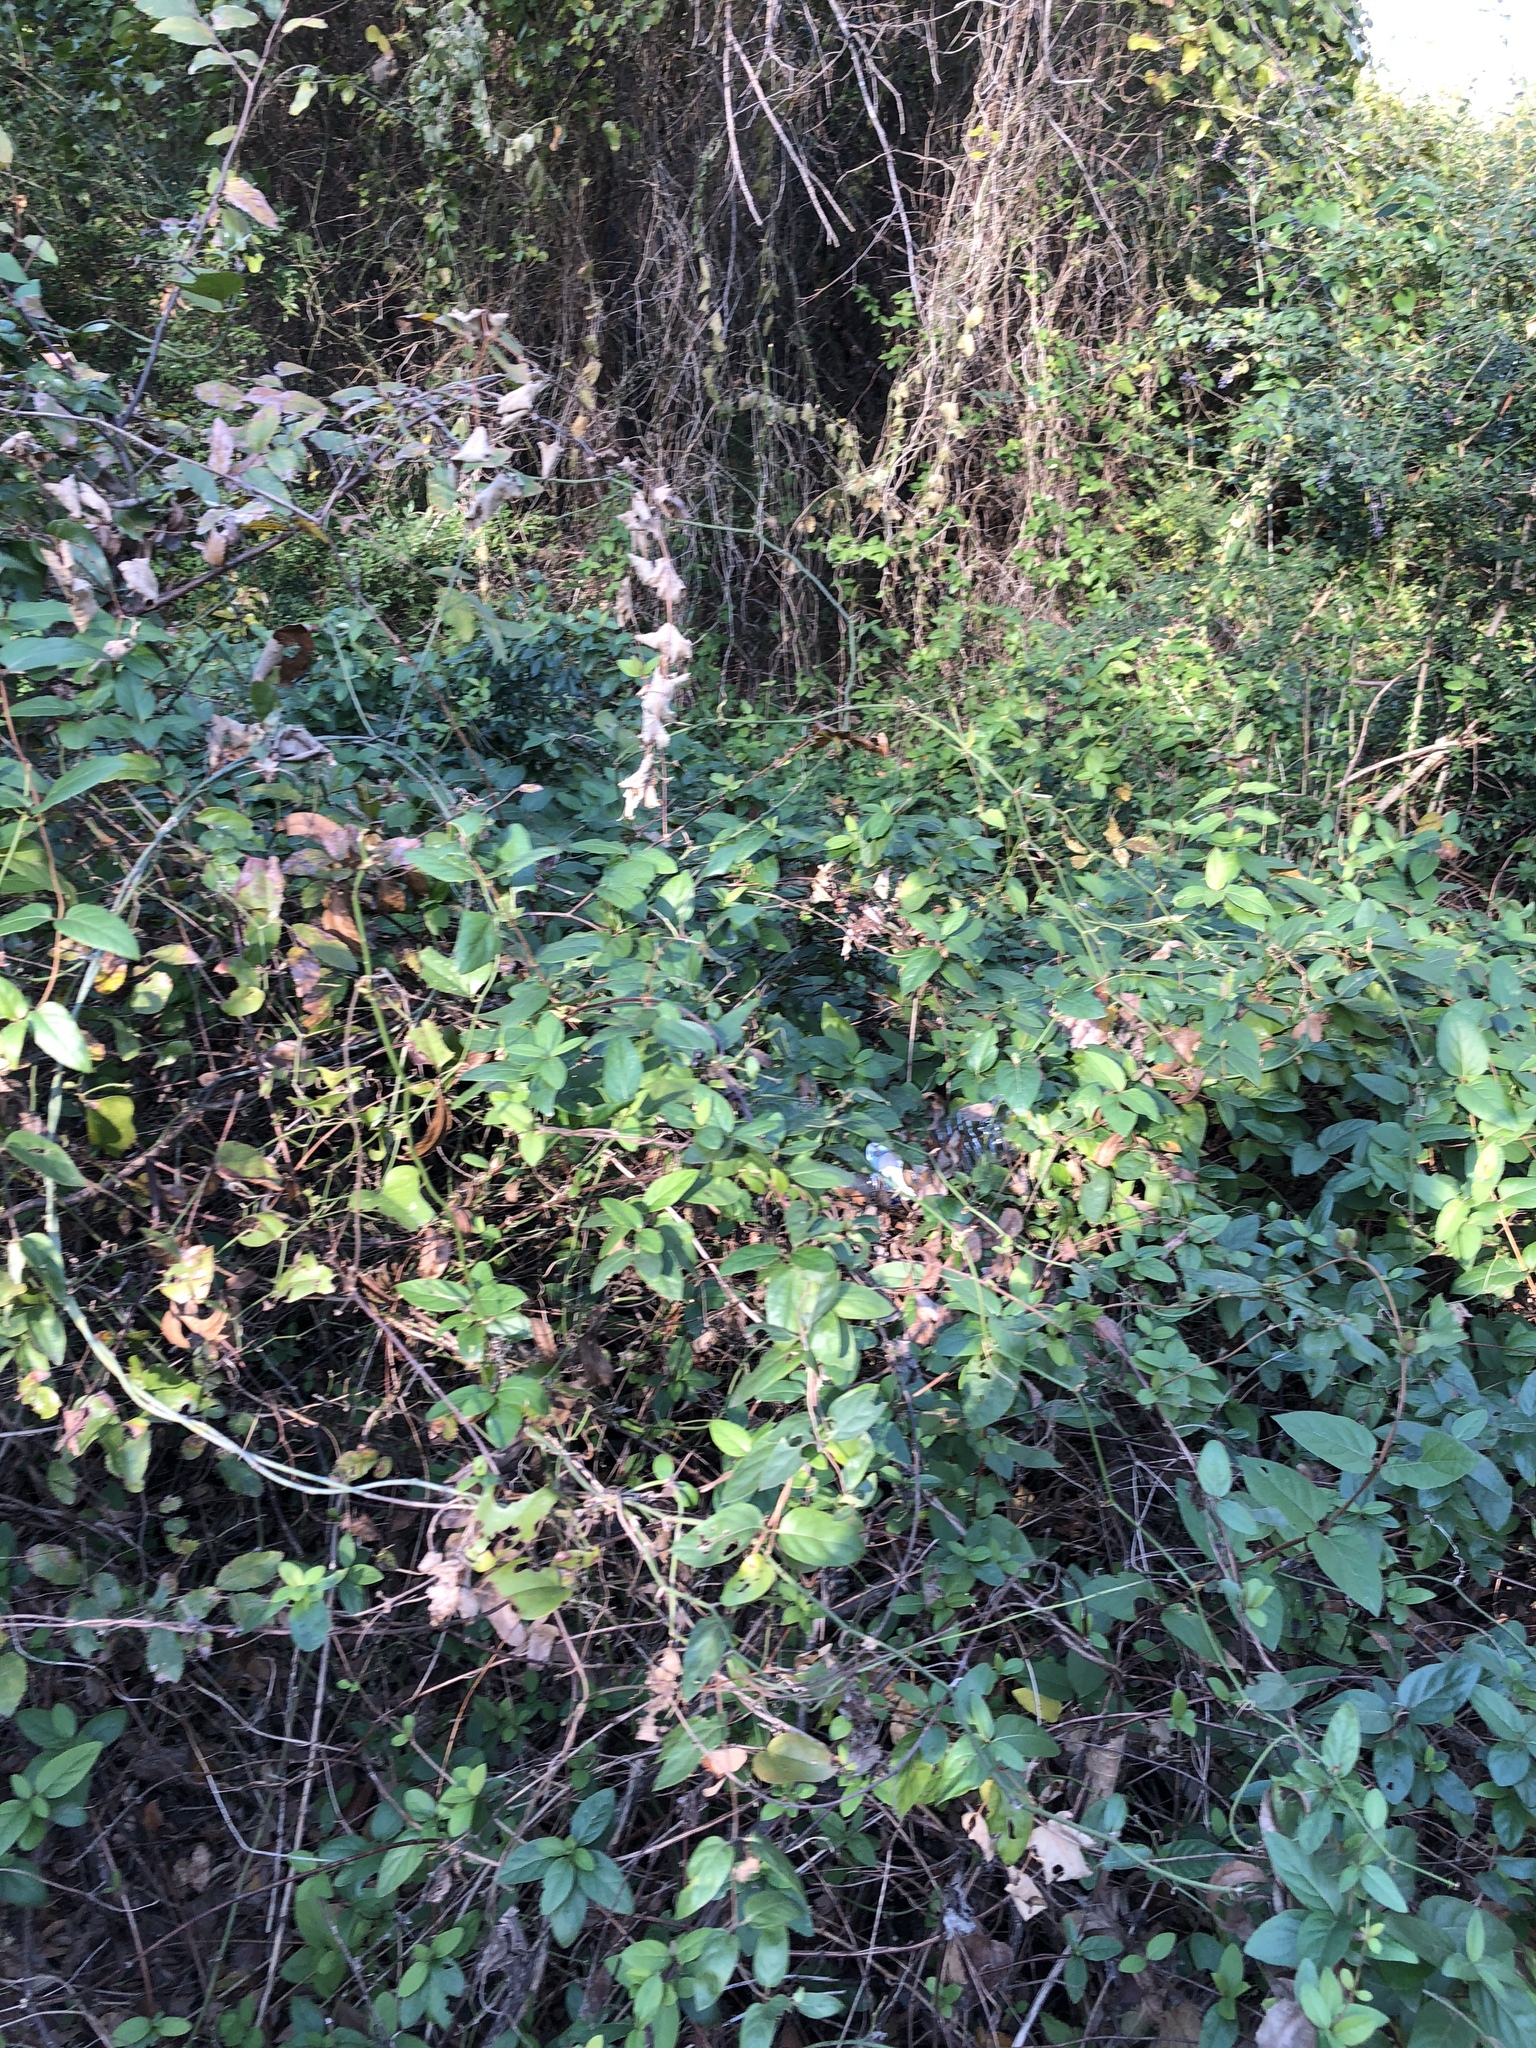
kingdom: Plantae
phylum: Tracheophyta
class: Magnoliopsida
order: Dipsacales
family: Caprifoliaceae
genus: Lonicera
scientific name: Lonicera japonica
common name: Japanese honeysuckle
